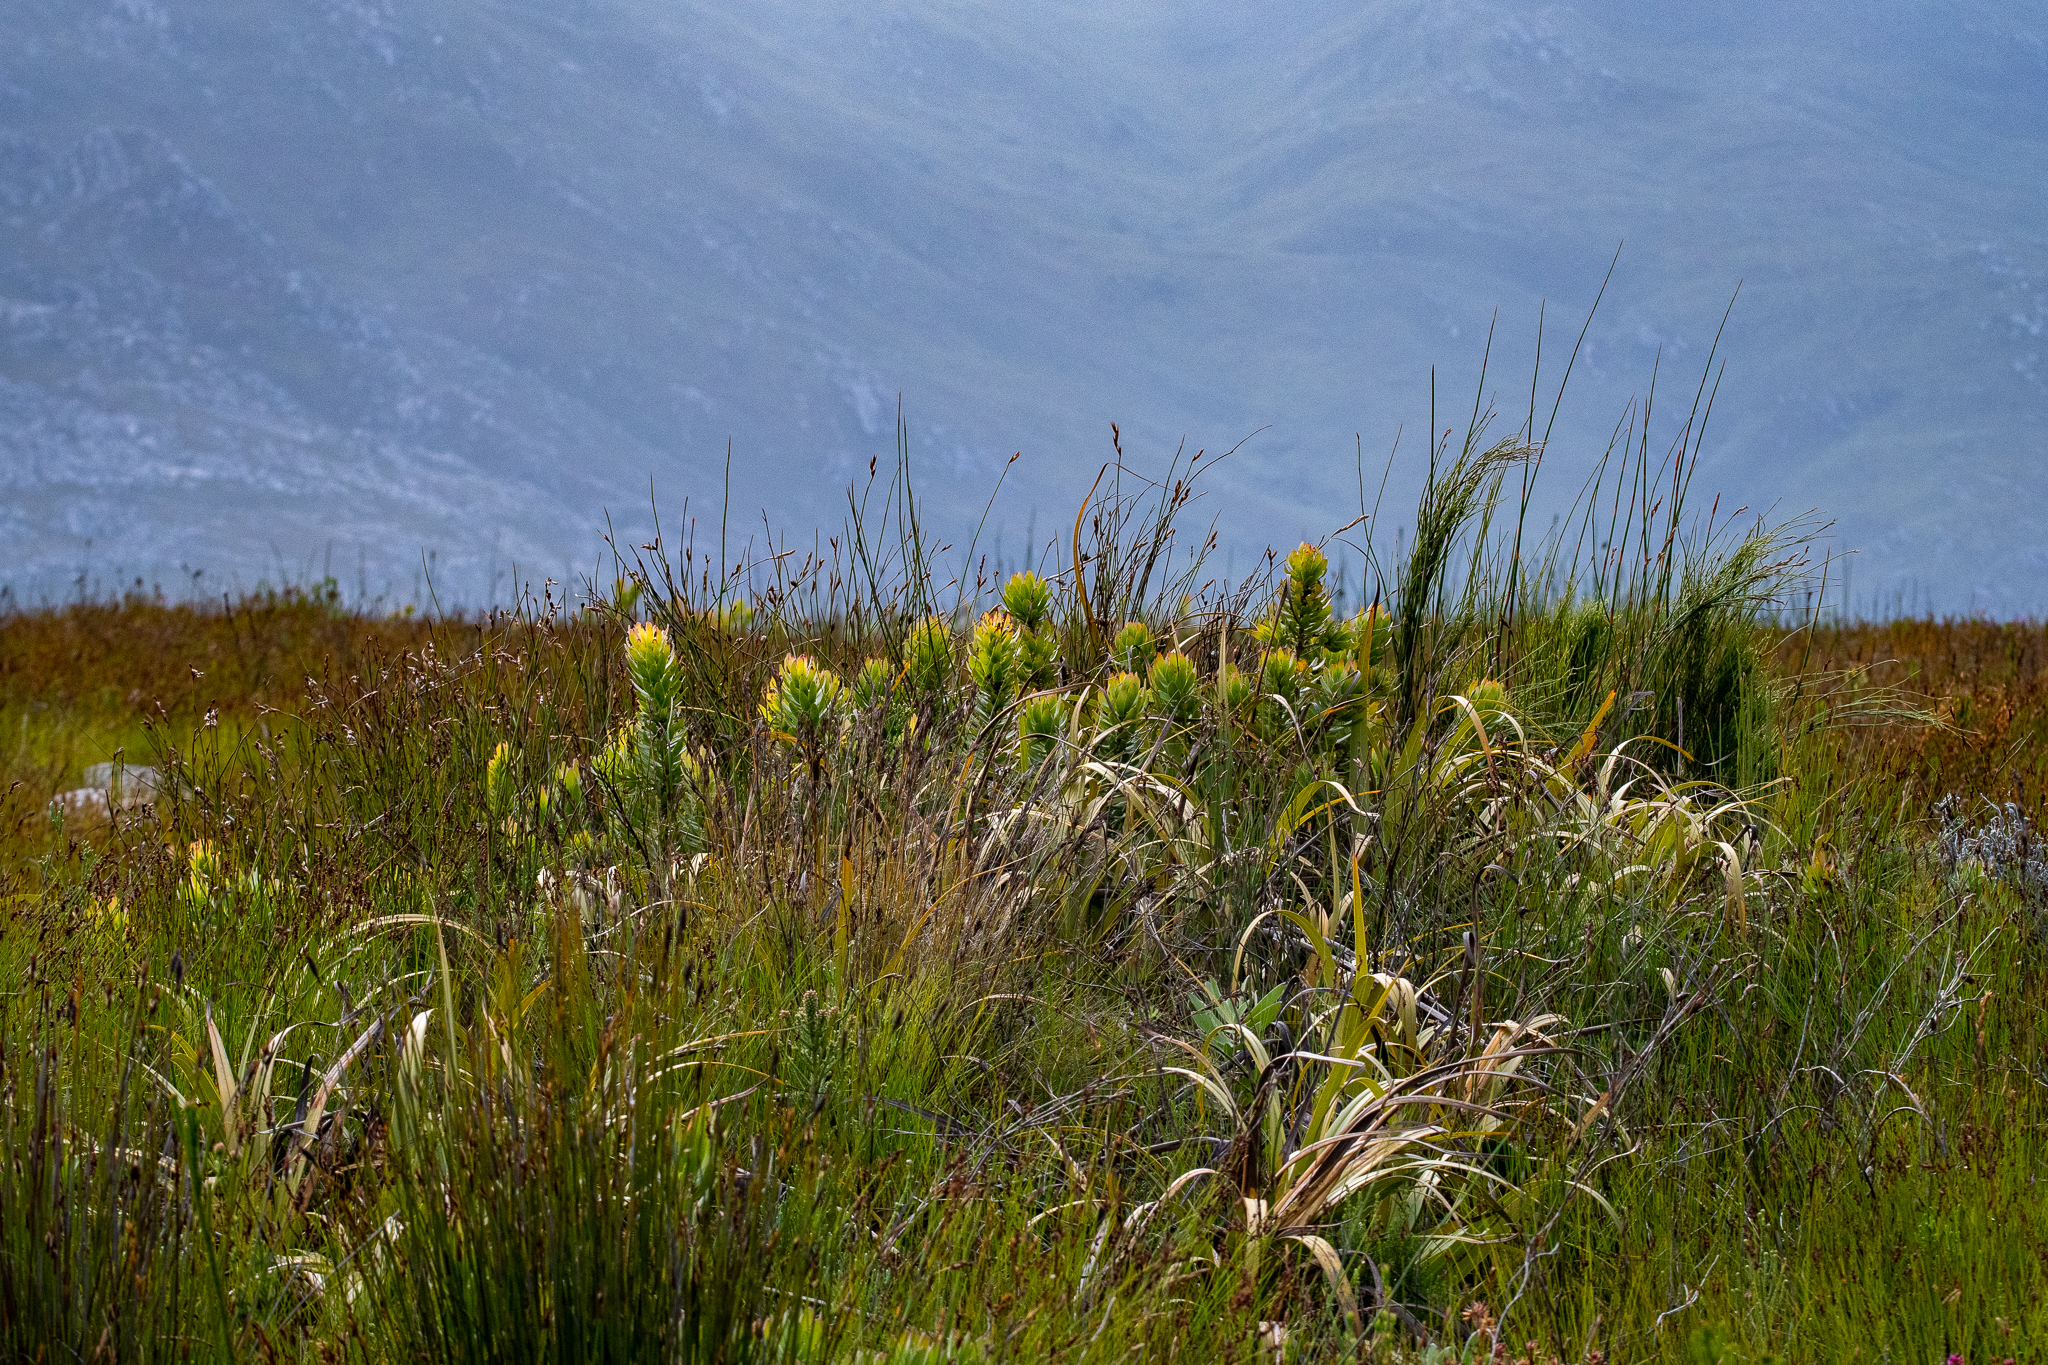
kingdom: Plantae
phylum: Tracheophyta
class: Magnoliopsida
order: Proteales
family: Proteaceae
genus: Mimetes
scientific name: Mimetes cucullatus
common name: Common pagoda
